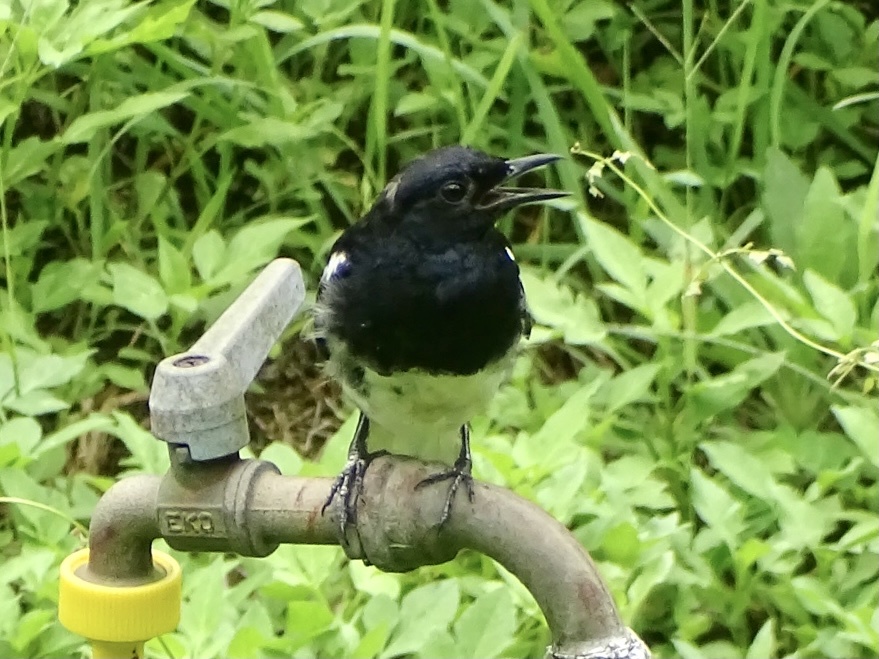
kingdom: Animalia
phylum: Chordata
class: Aves
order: Passeriformes
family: Muscicapidae
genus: Copsychus
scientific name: Copsychus saularis
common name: Oriental magpie-robin
